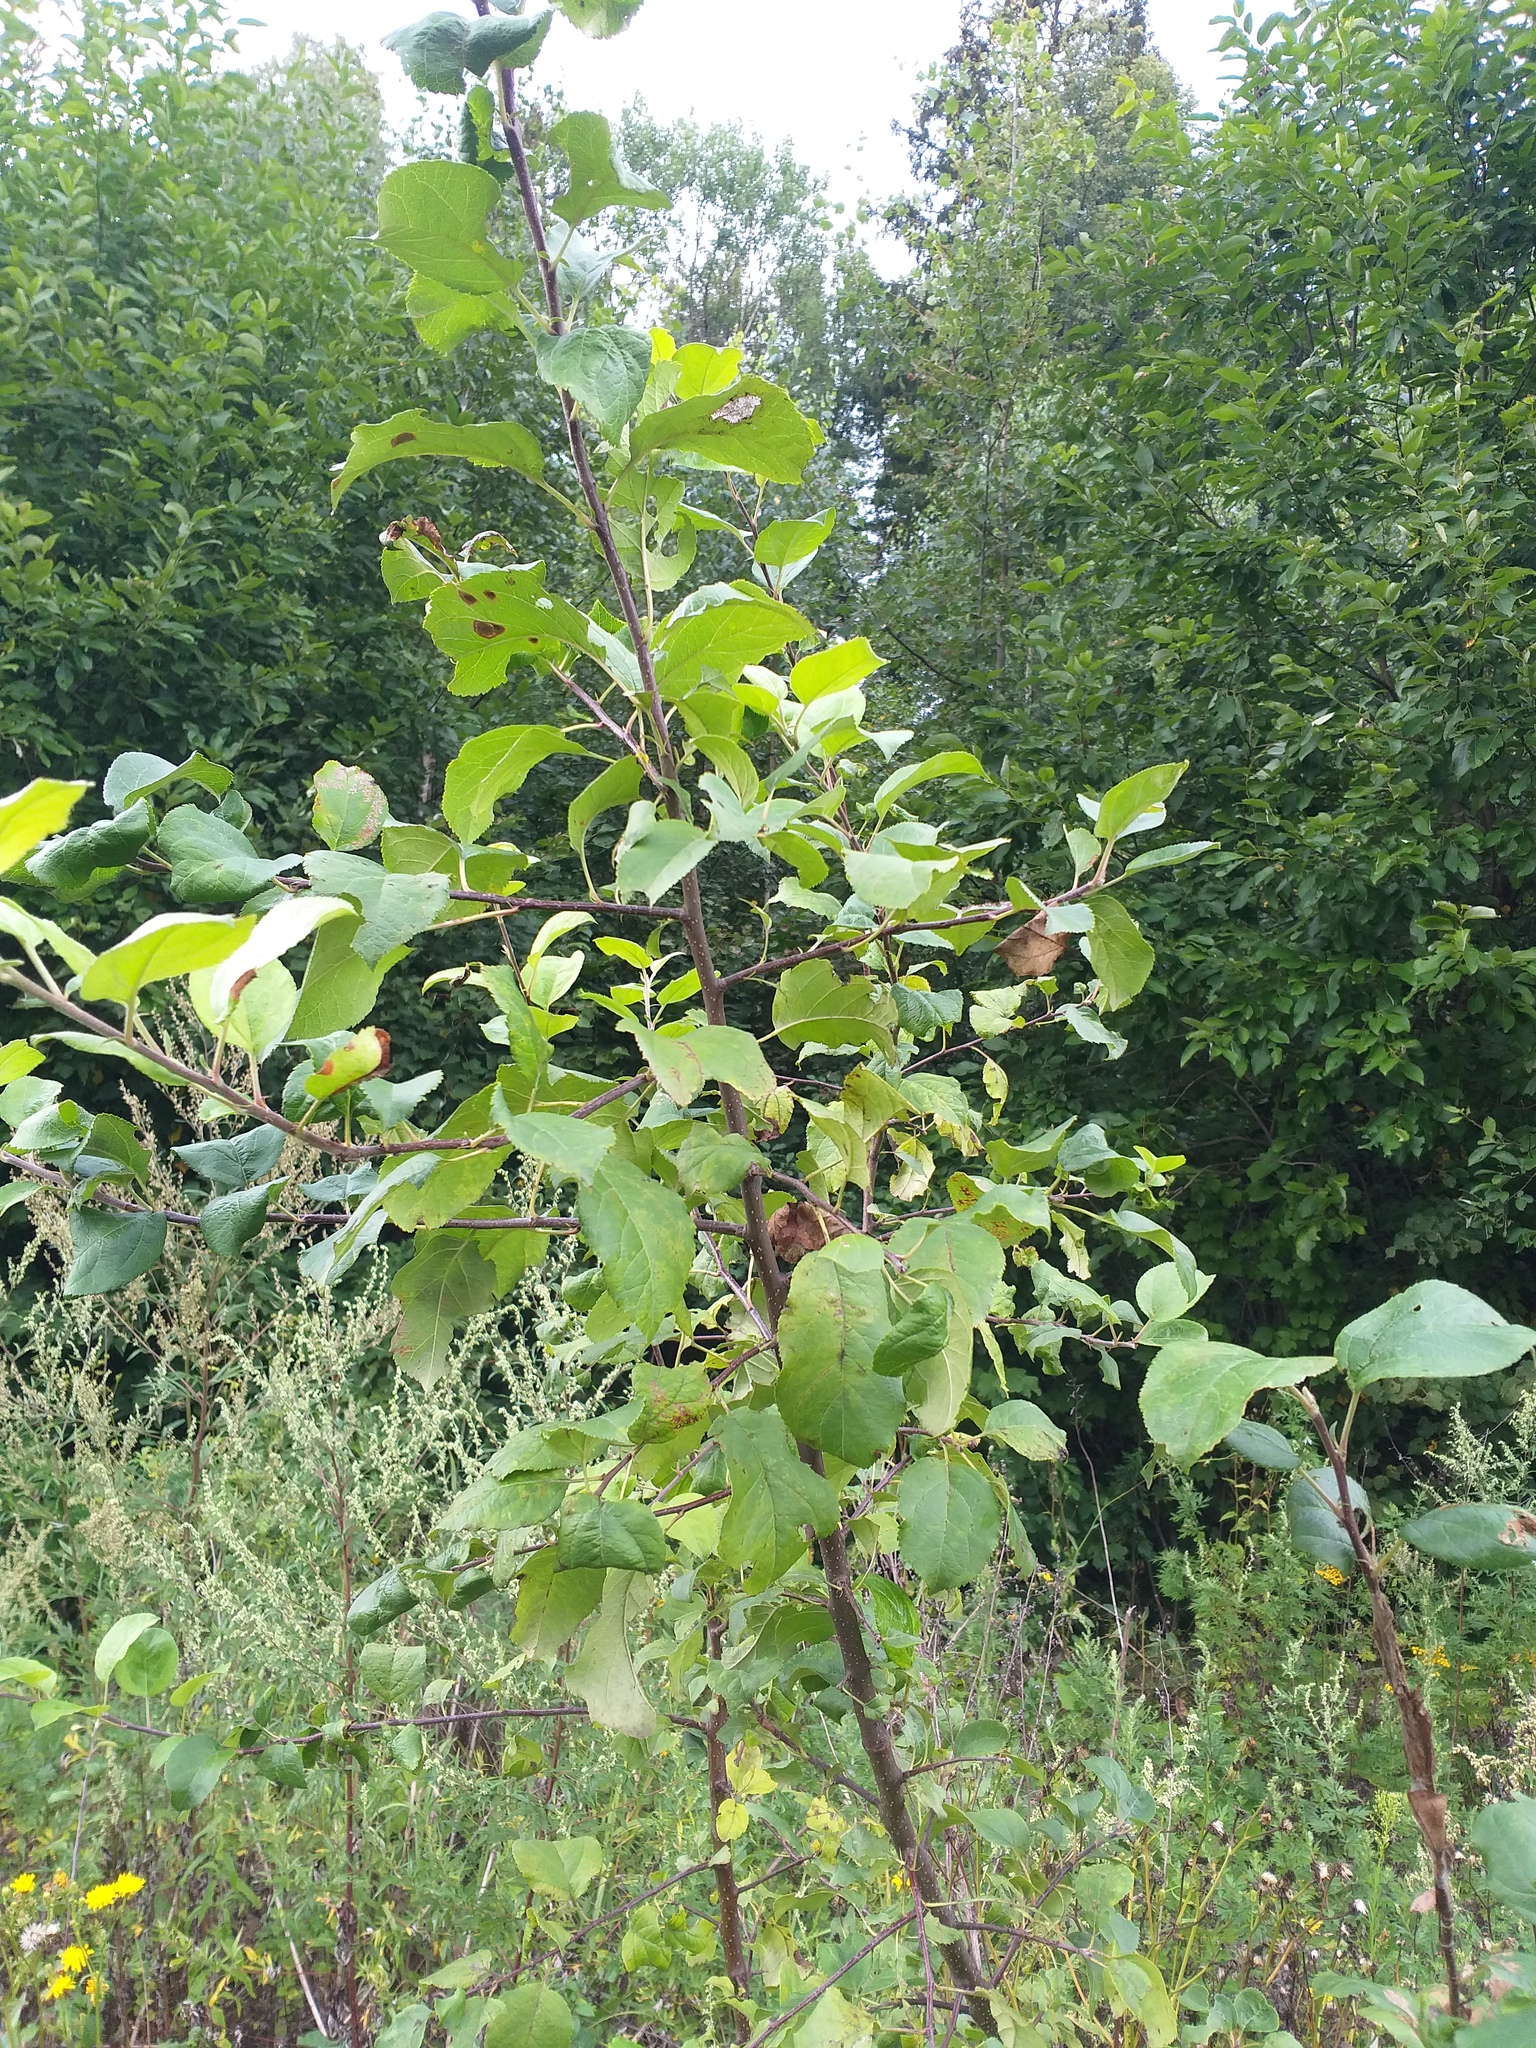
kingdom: Plantae
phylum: Tracheophyta
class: Magnoliopsida
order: Rosales
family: Rosaceae
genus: Malus
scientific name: Malus domestica
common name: Apple
